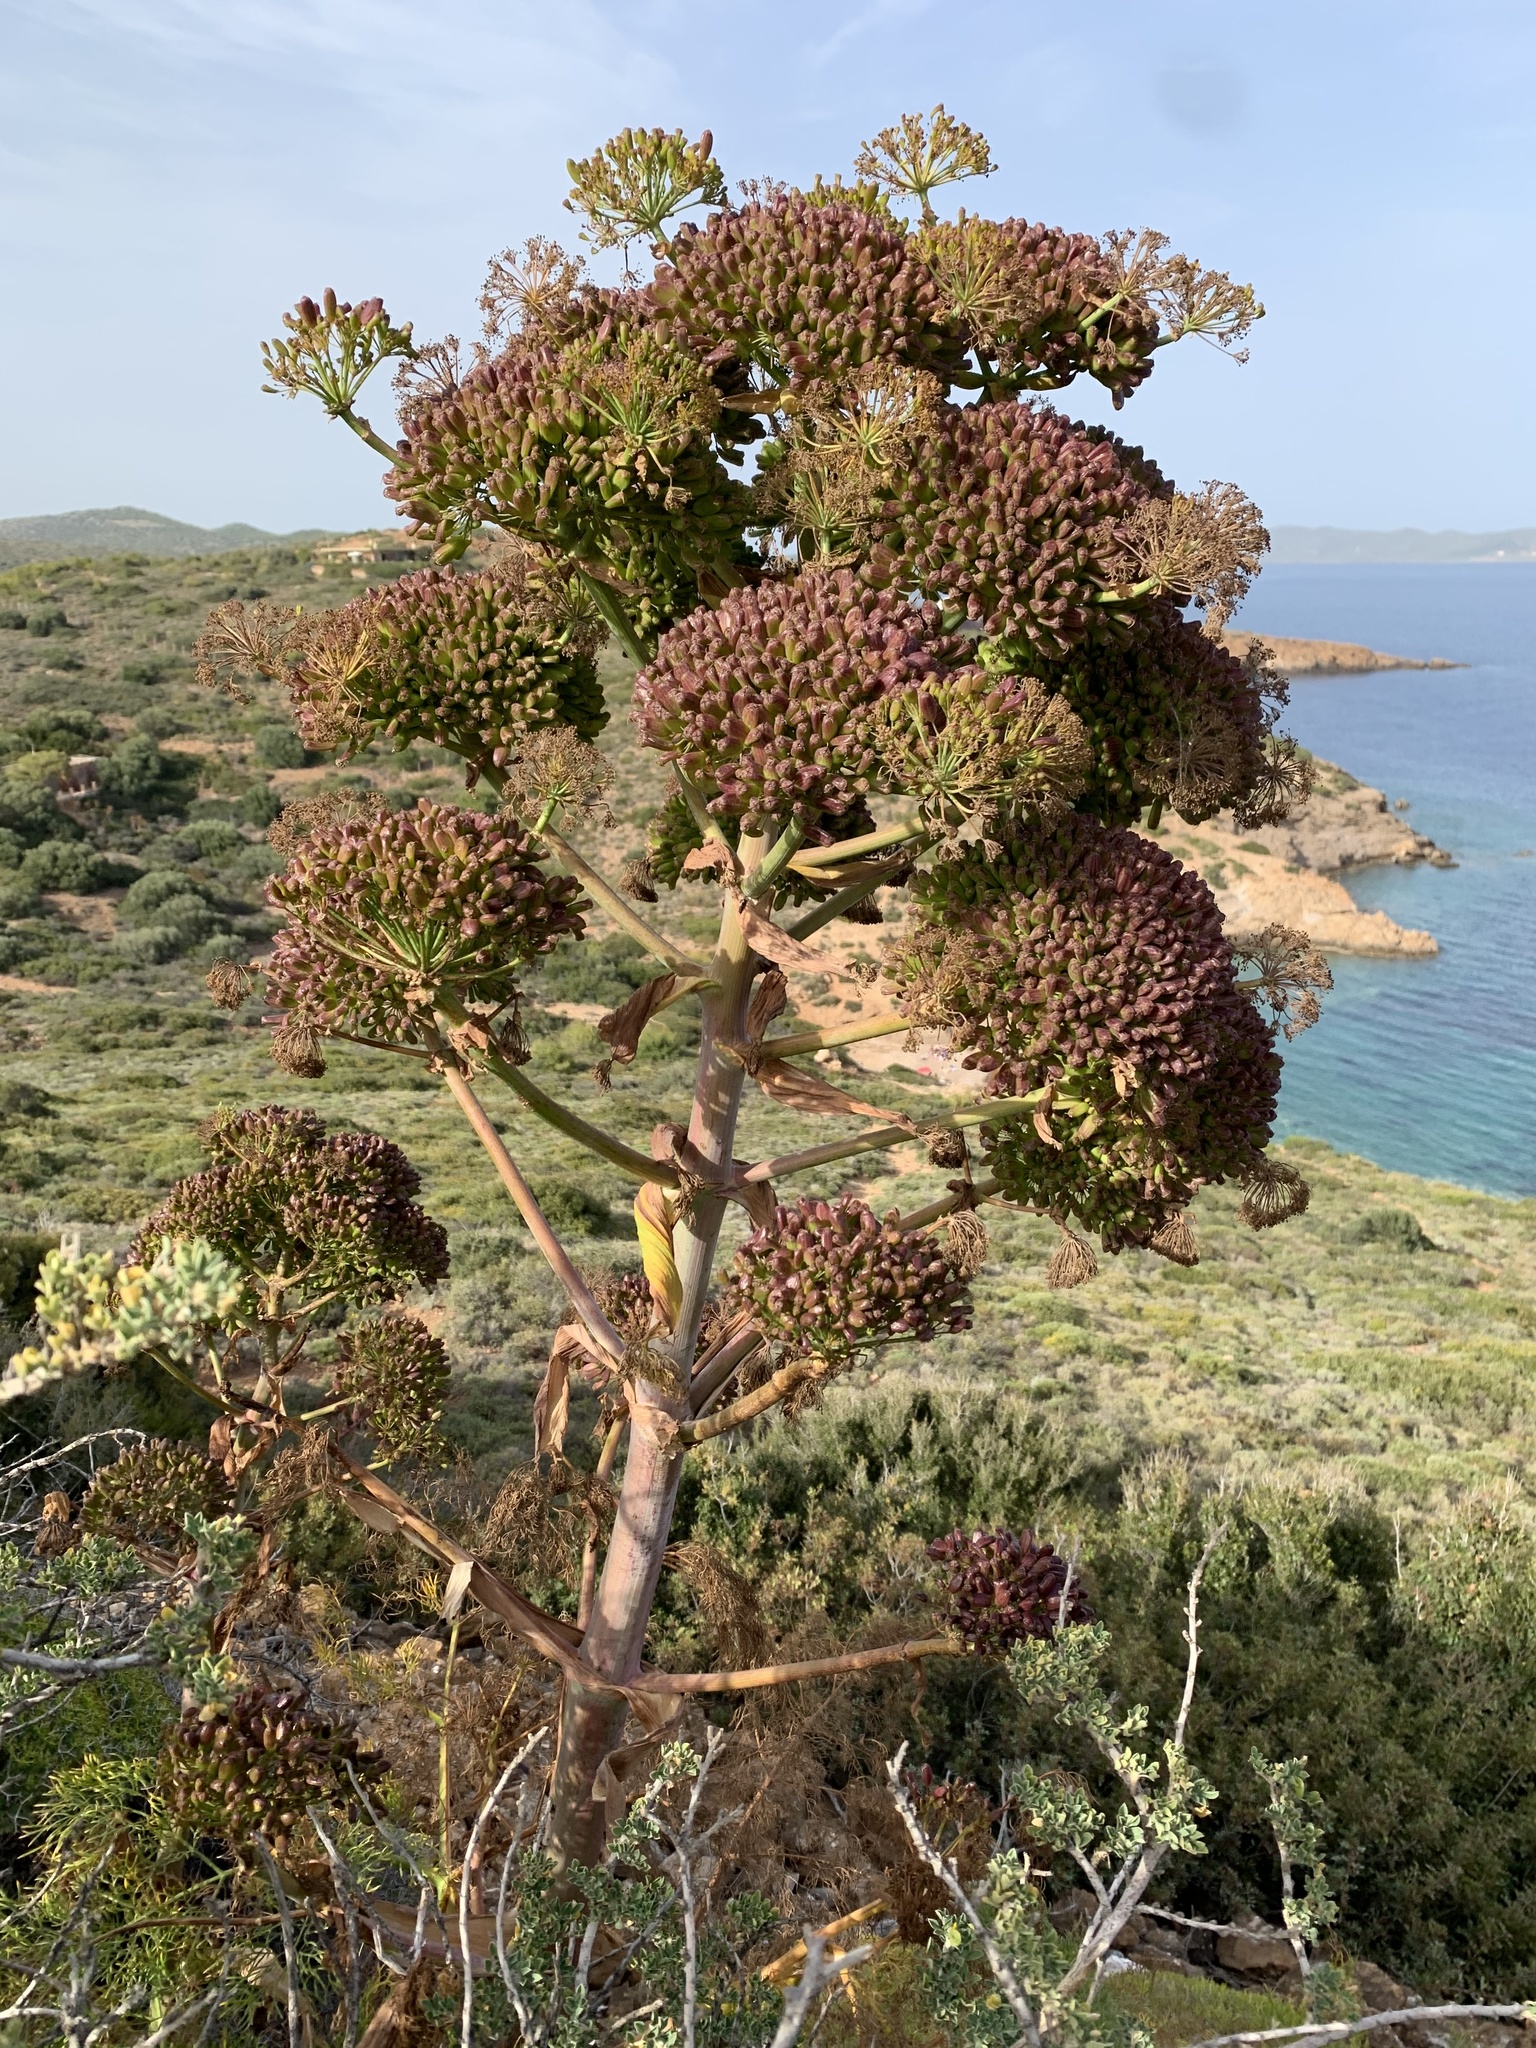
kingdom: Plantae
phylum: Tracheophyta
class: Magnoliopsida
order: Apiales
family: Apiaceae
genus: Ferula
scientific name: Ferula communis
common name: Giant fennel
